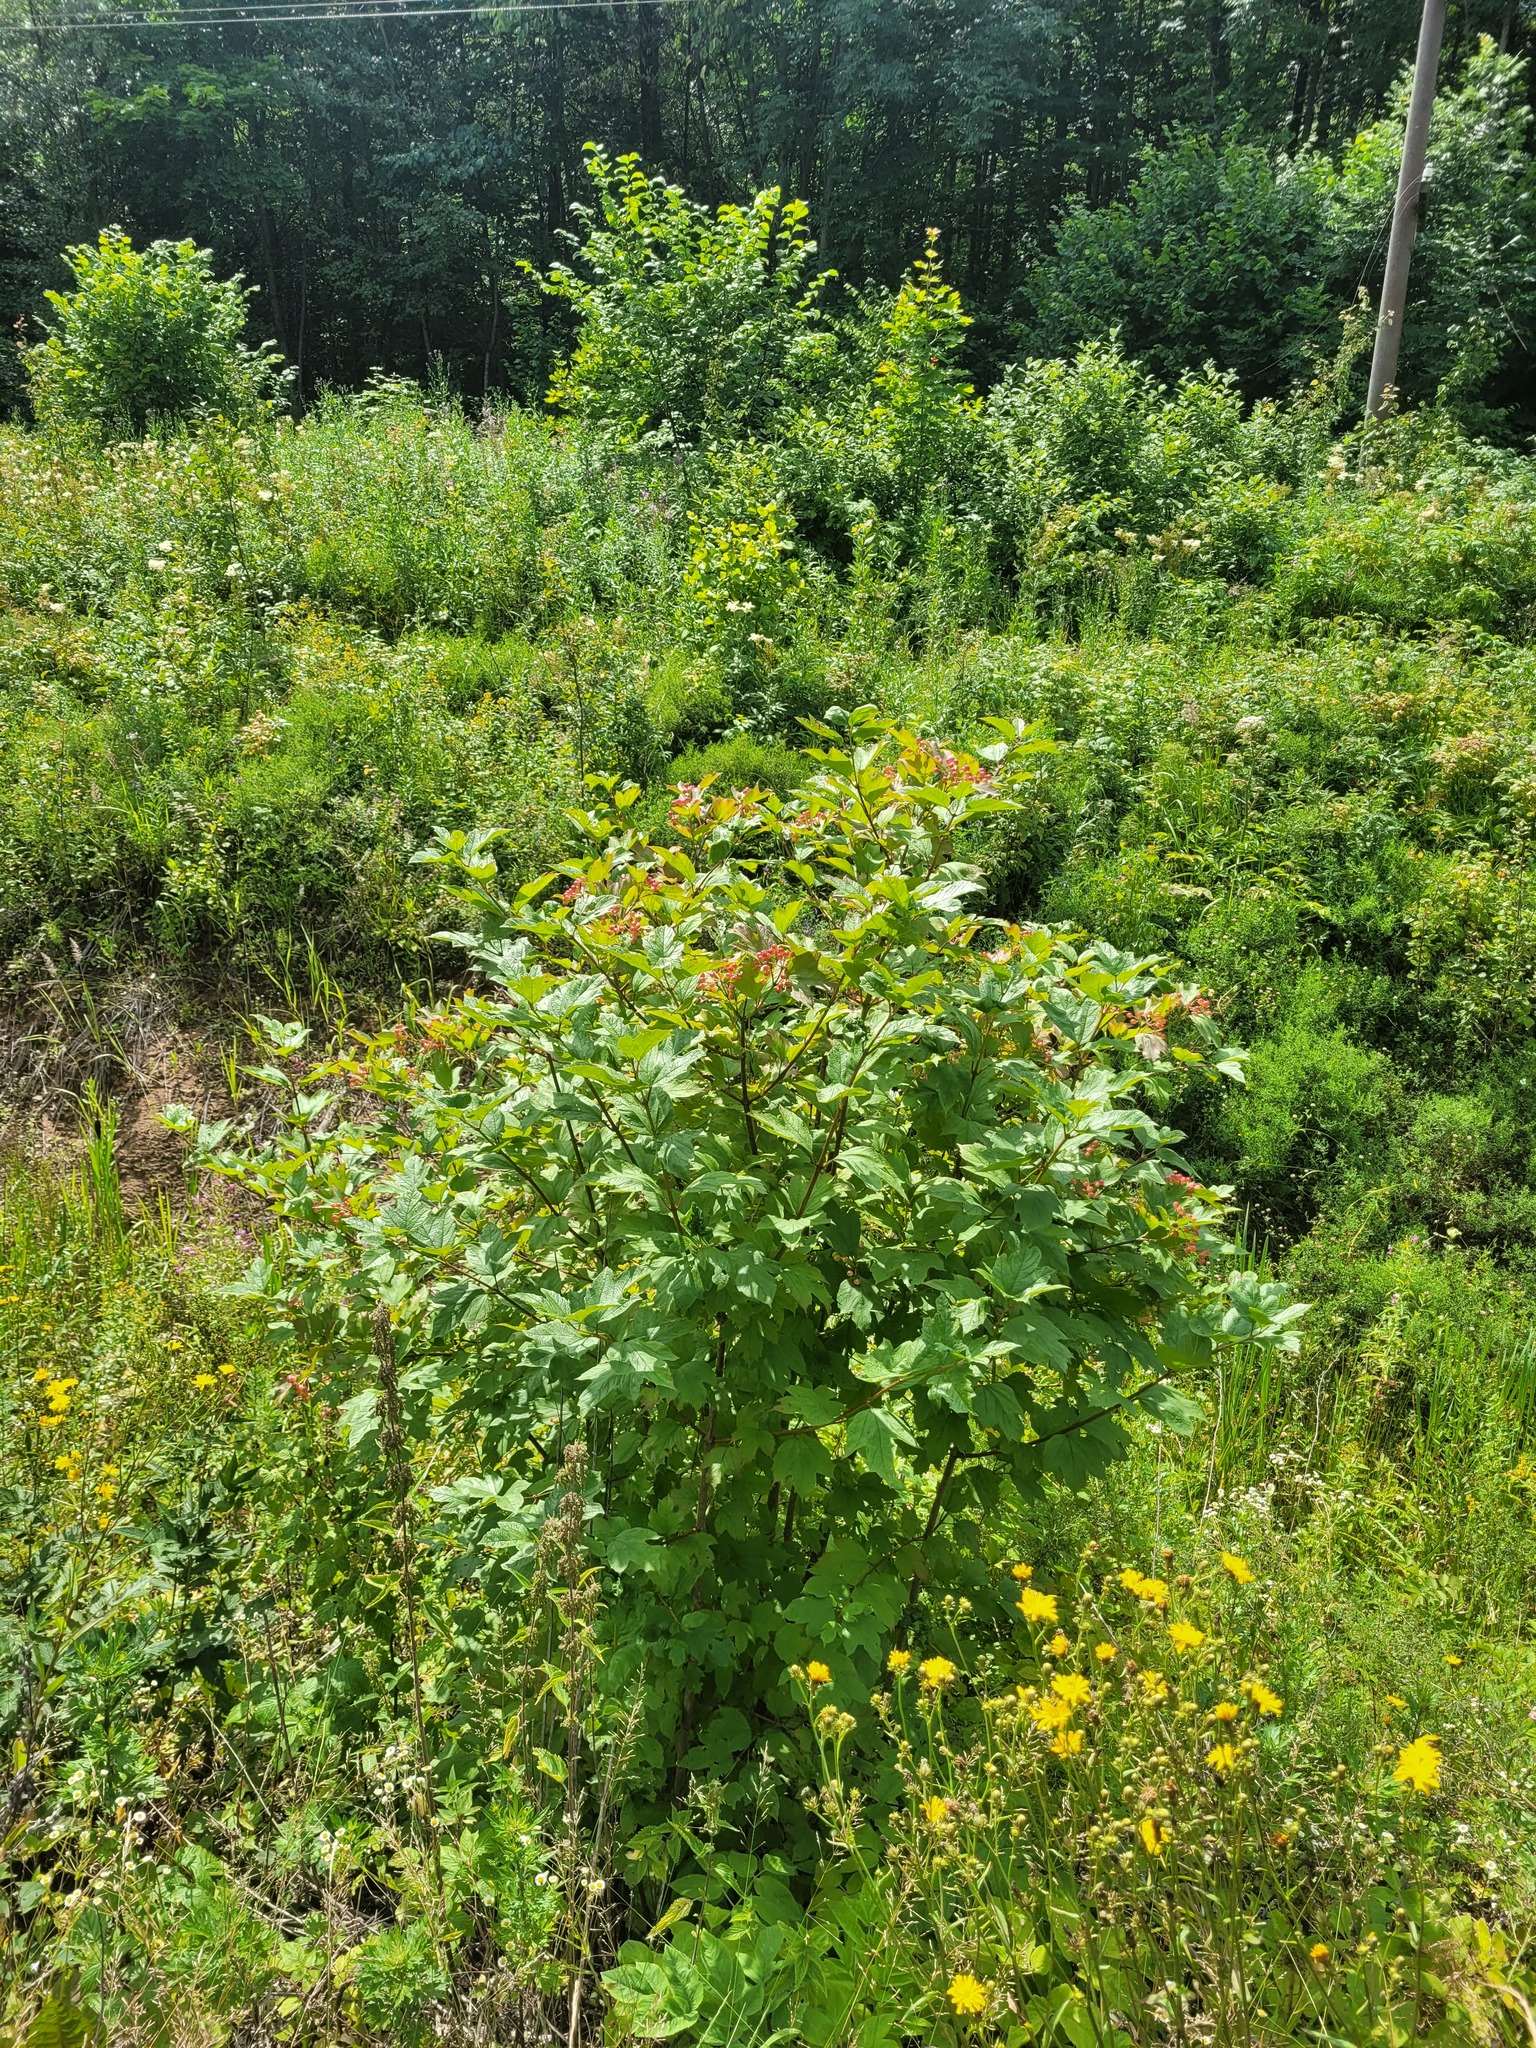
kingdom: Plantae
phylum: Tracheophyta
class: Magnoliopsida
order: Dipsacales
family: Viburnaceae
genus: Viburnum
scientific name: Viburnum opulus
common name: Guelder-rose
